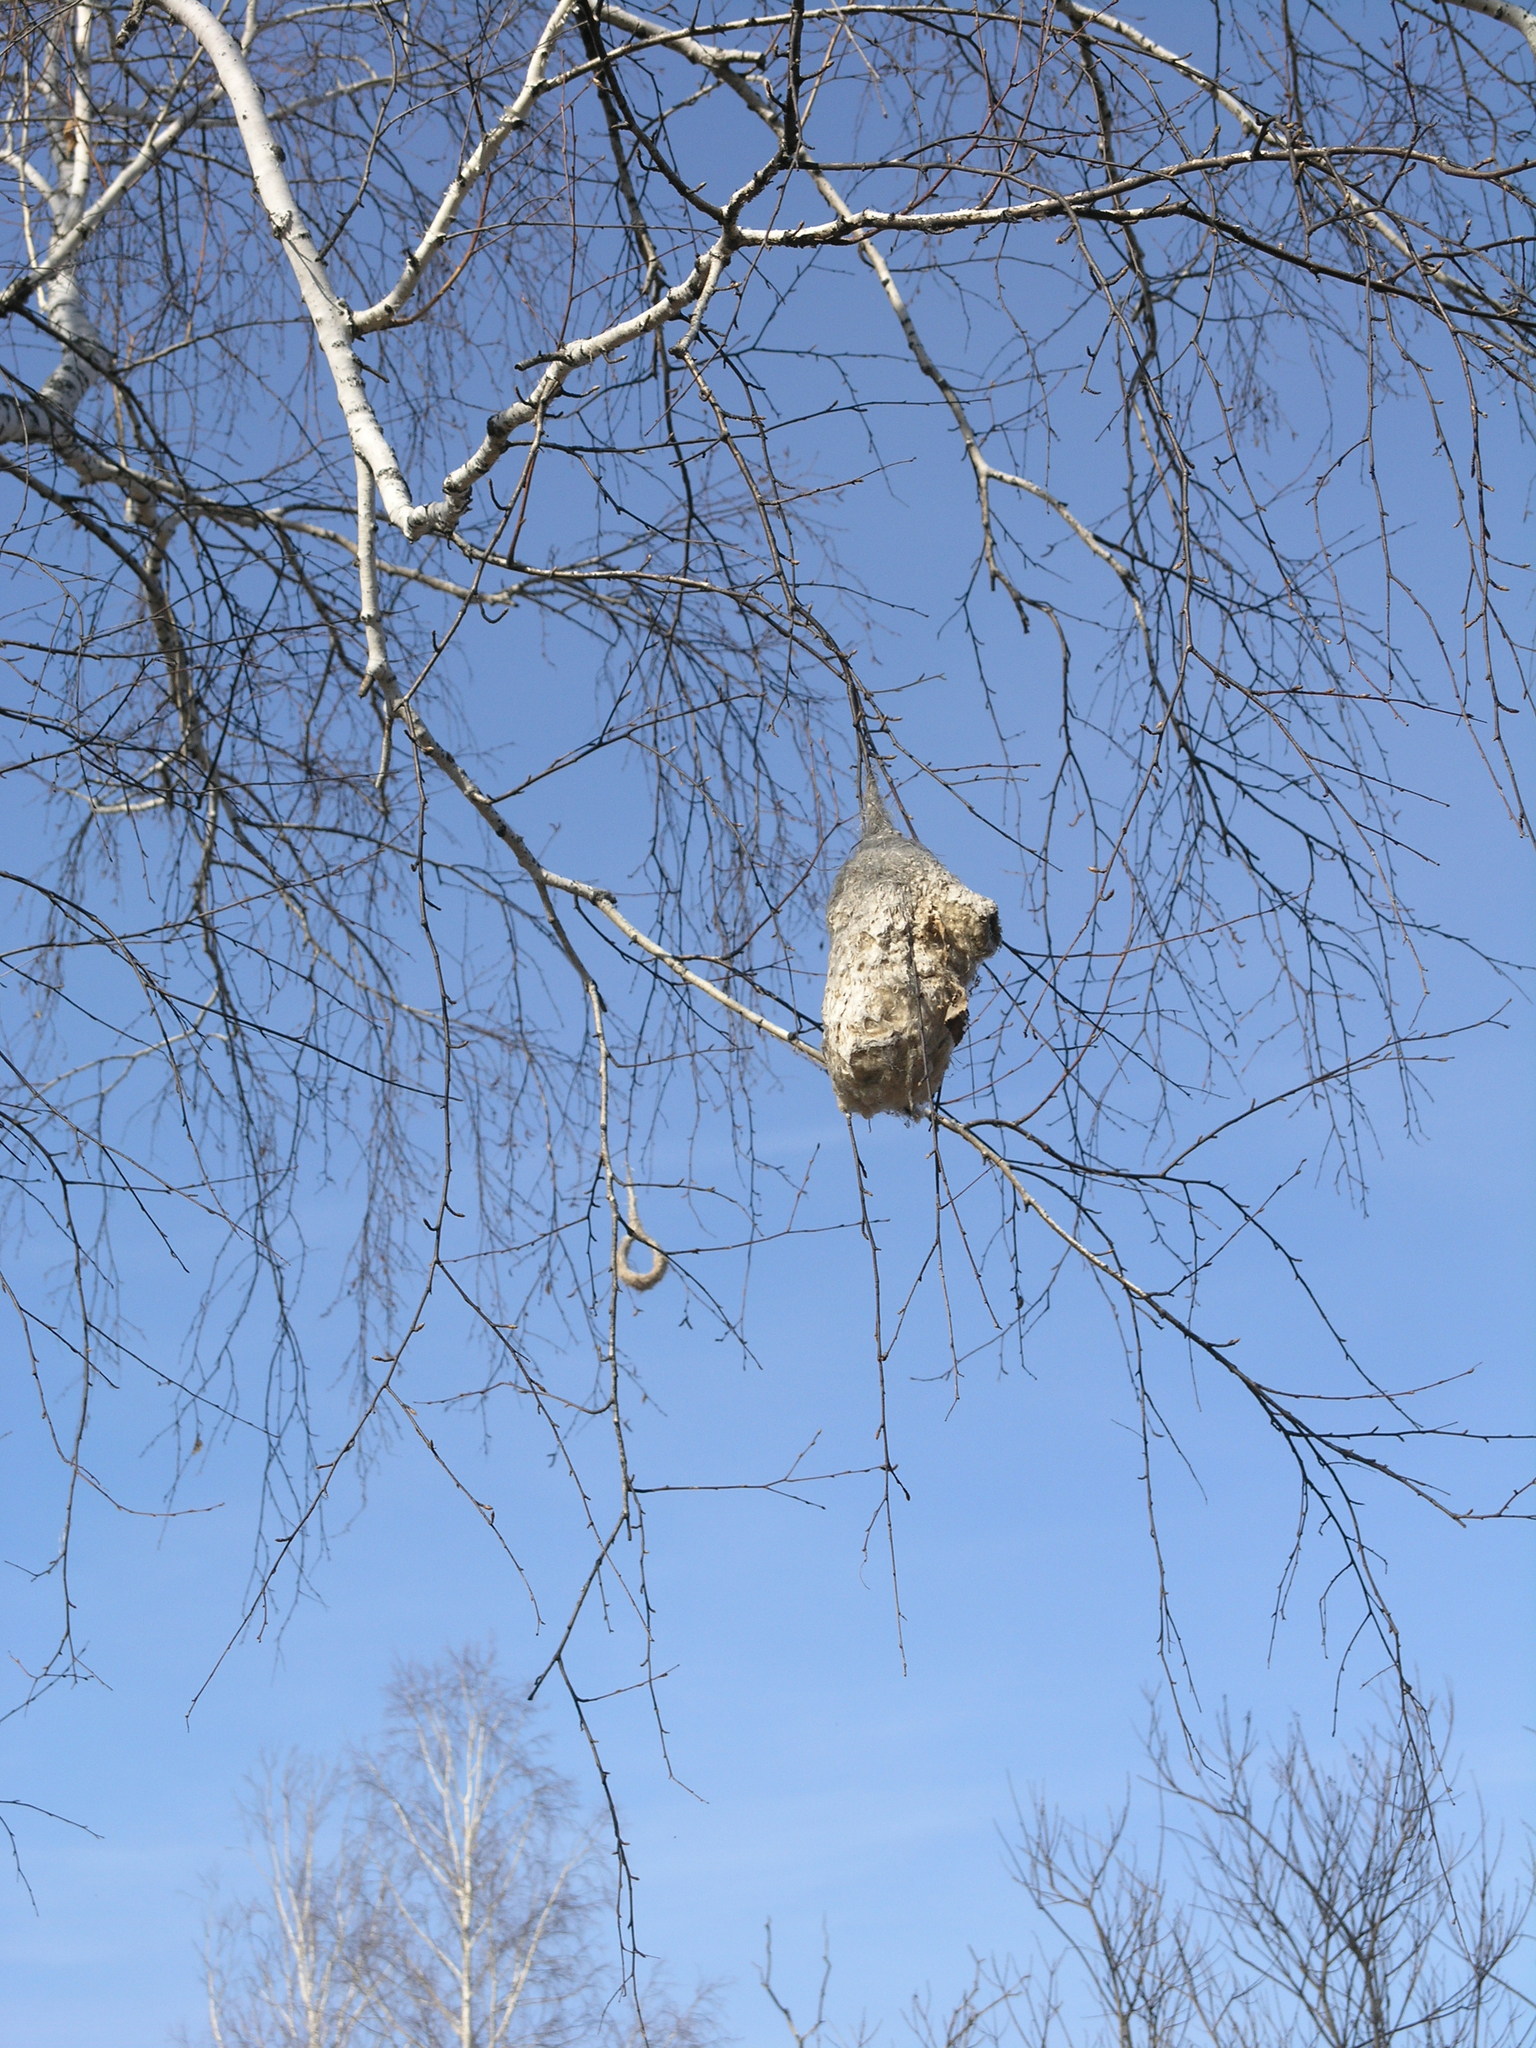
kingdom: Animalia
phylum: Chordata
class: Aves
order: Passeriformes
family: Remizidae
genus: Remiz
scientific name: Remiz pendulinus
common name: Eurasian penduline tit
